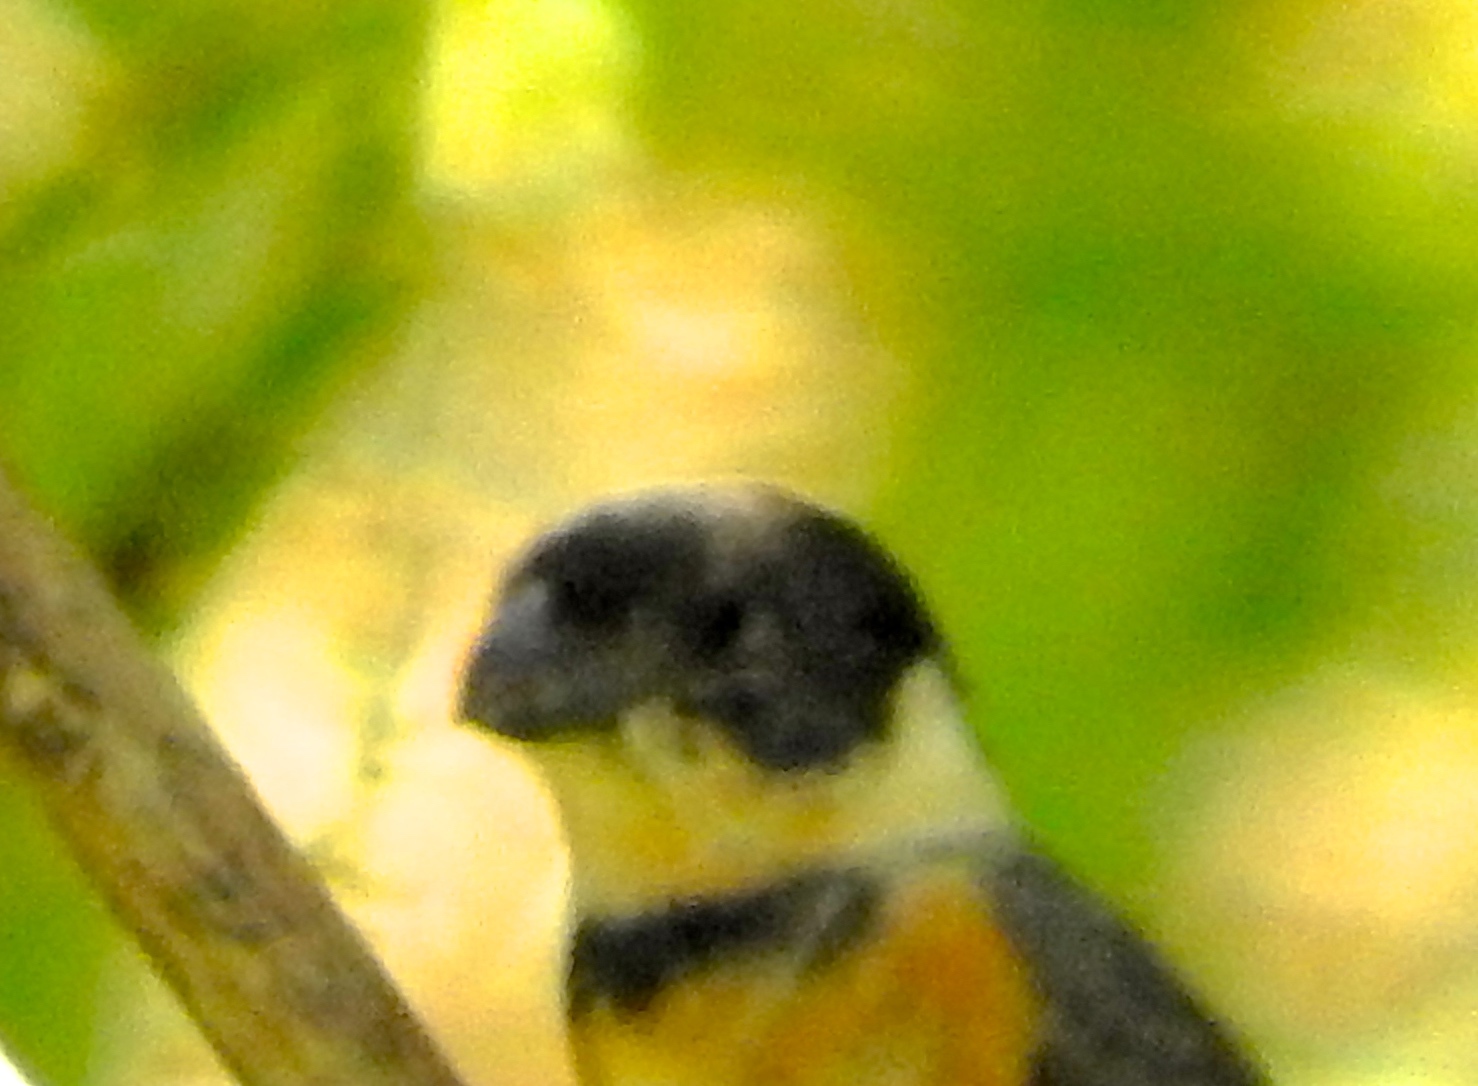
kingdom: Animalia
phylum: Chordata
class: Aves
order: Passeriformes
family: Thraupidae
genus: Sporophila
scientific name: Sporophila torqueola
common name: White-collared seedeater
